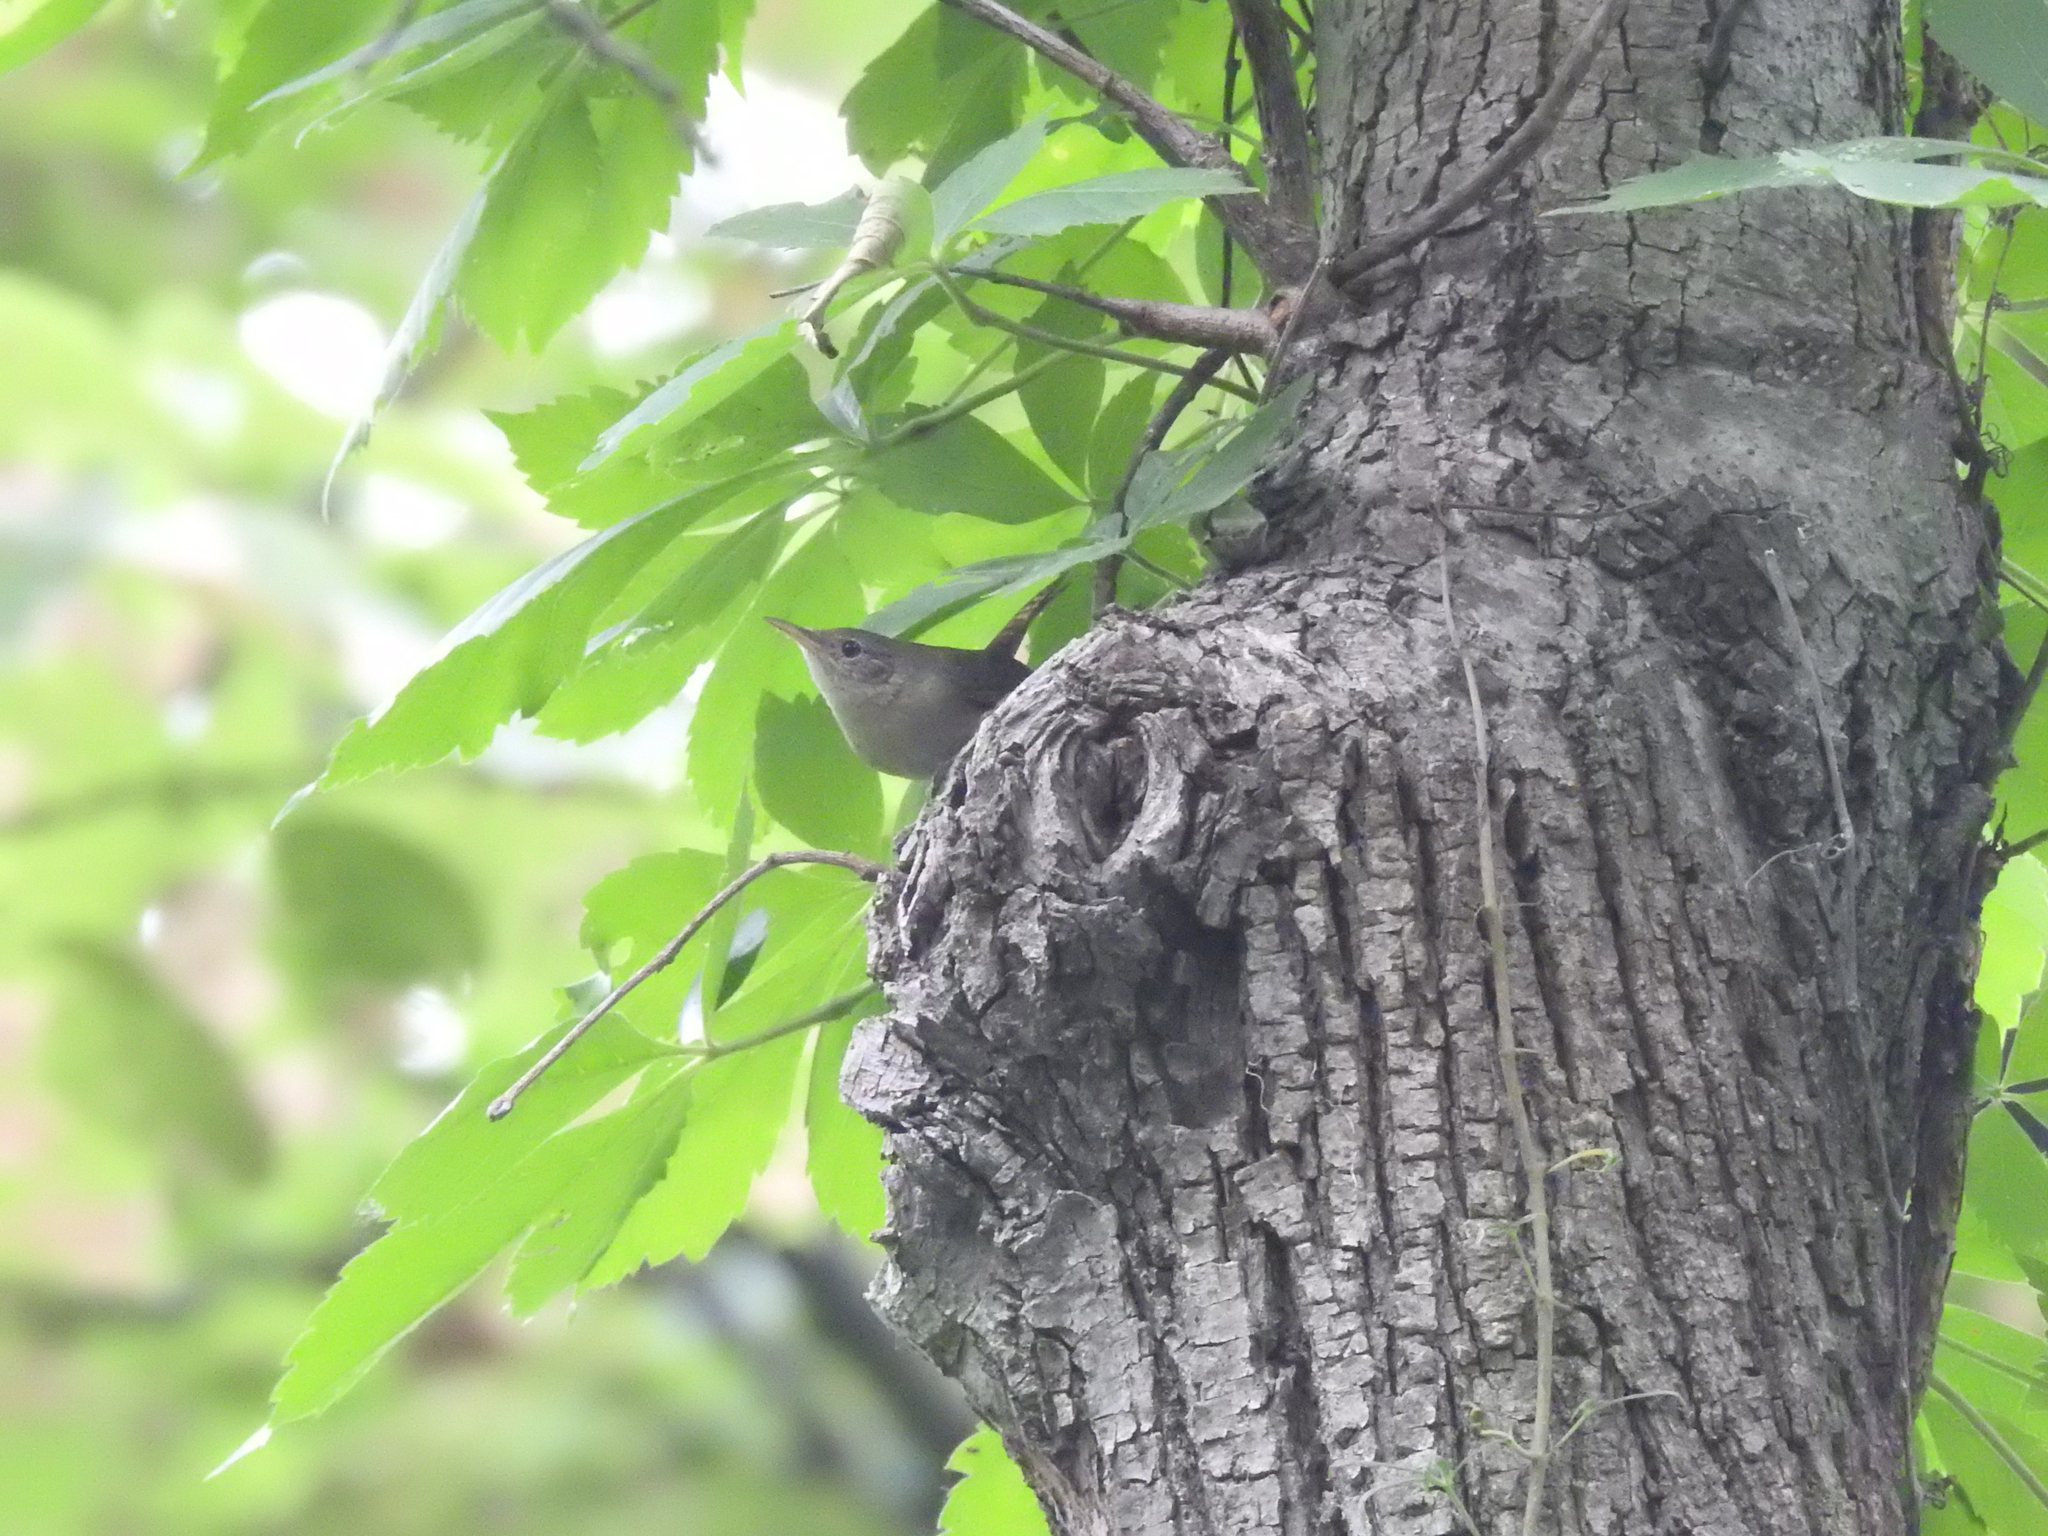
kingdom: Animalia
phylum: Chordata
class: Aves
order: Passeriformes
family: Troglodytidae
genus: Troglodytes
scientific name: Troglodytes aedon
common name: House wren
